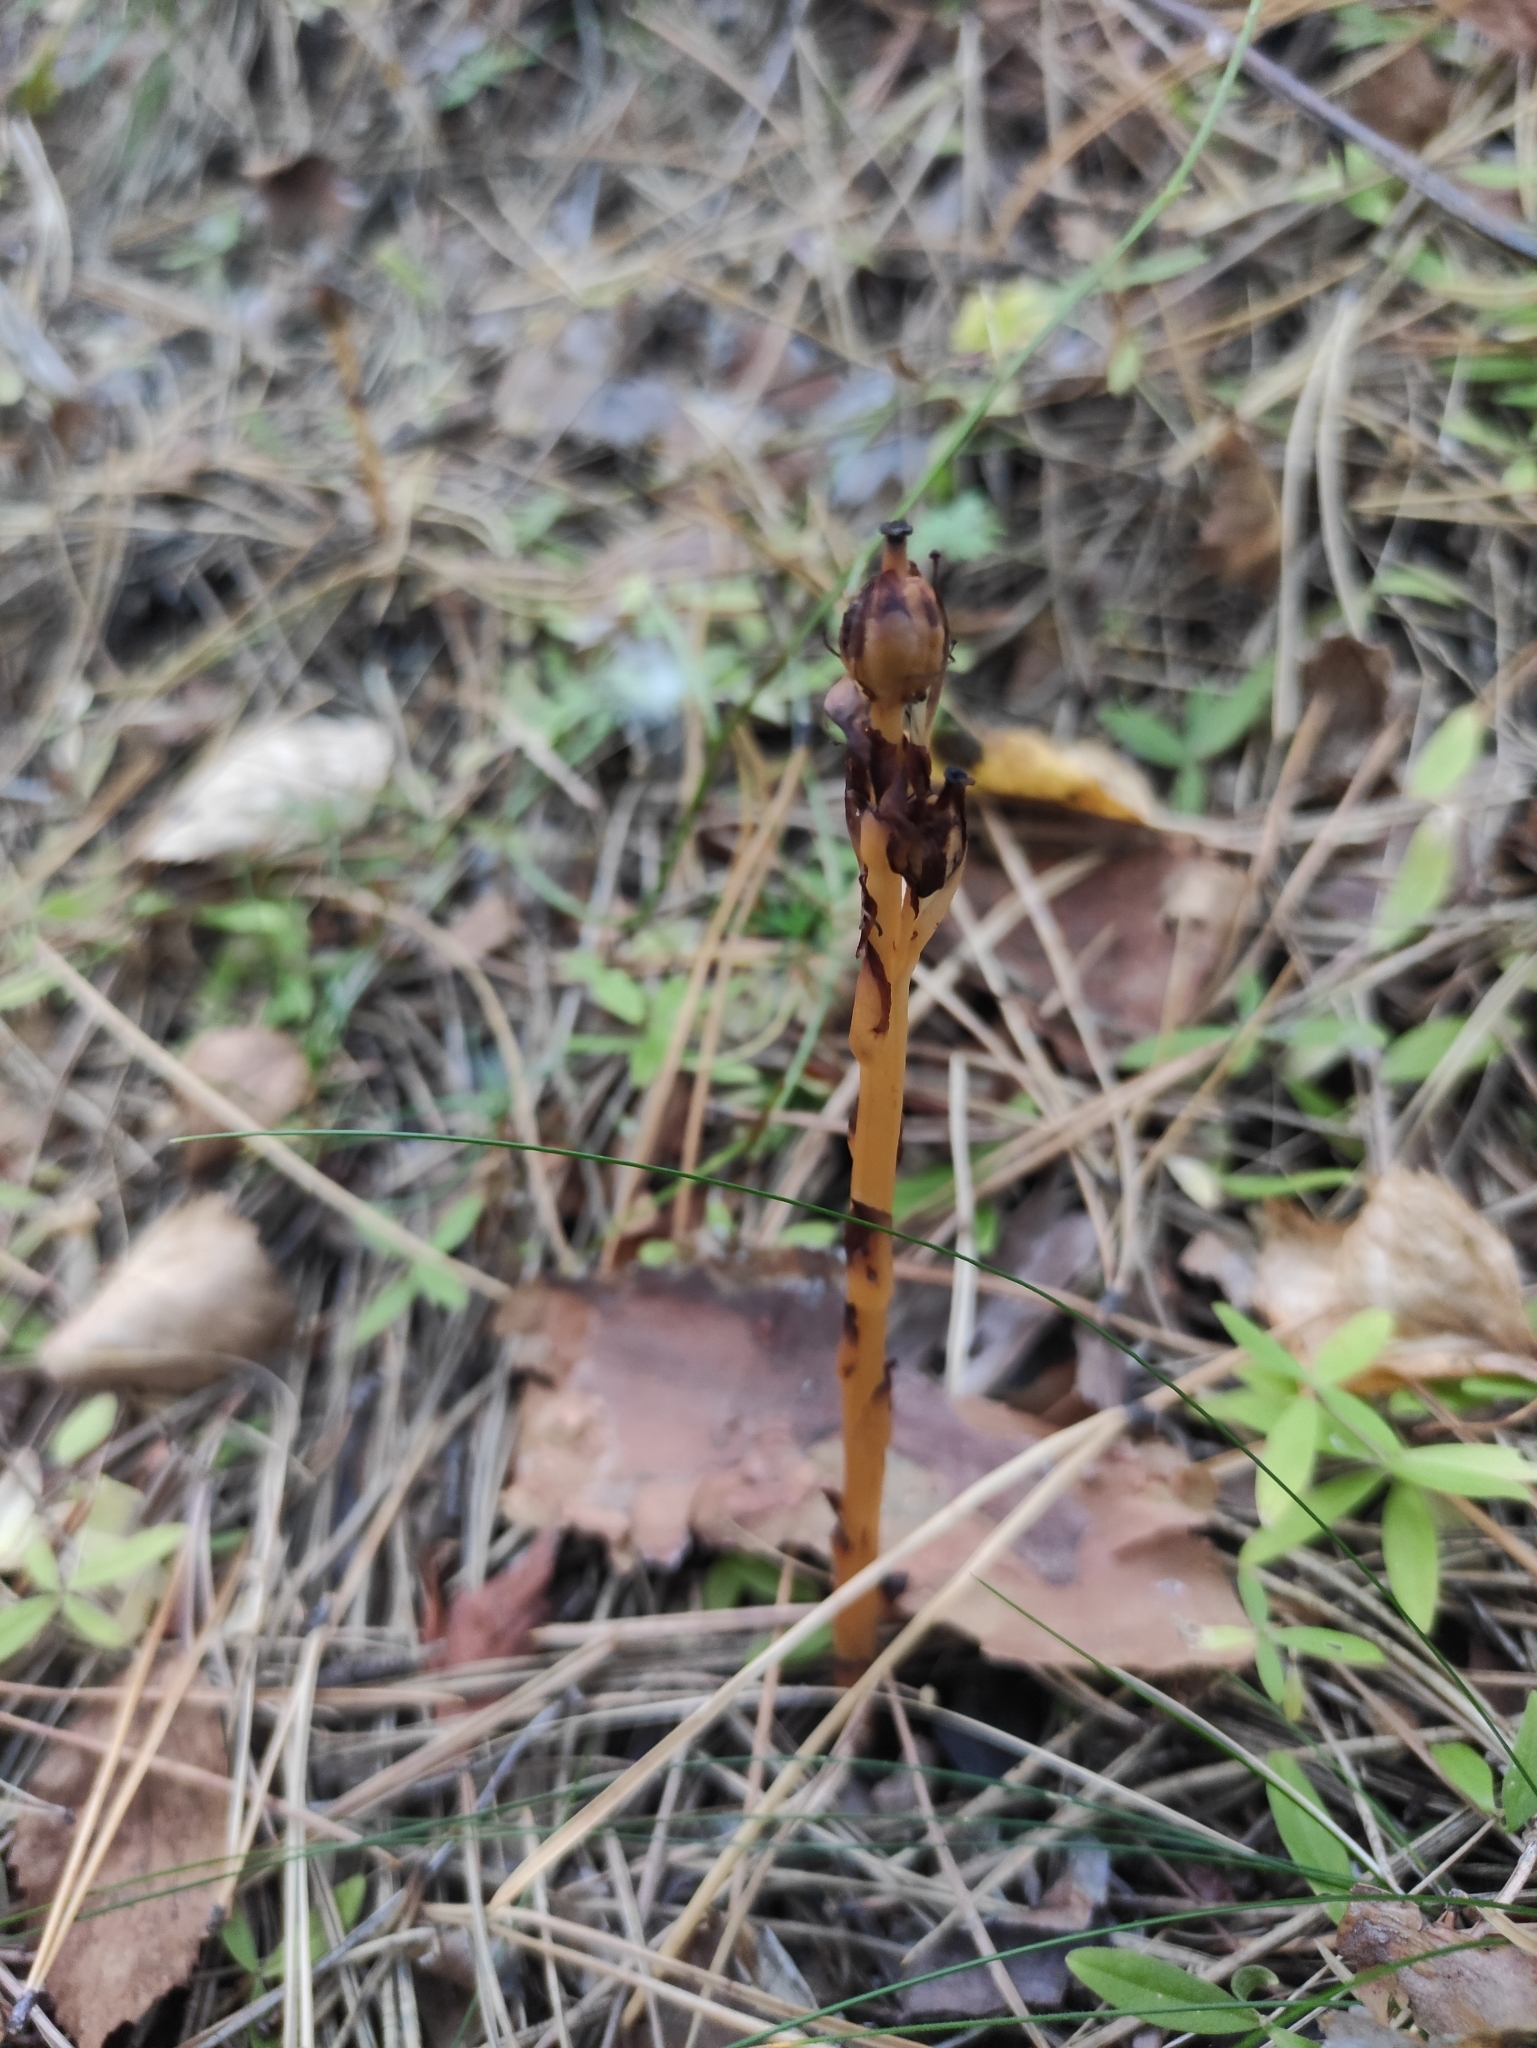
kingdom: Plantae
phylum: Tracheophyta
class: Magnoliopsida
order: Ericales
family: Ericaceae
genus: Hypopitys
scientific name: Hypopitys monotropa
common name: Yellow bird's-nest
